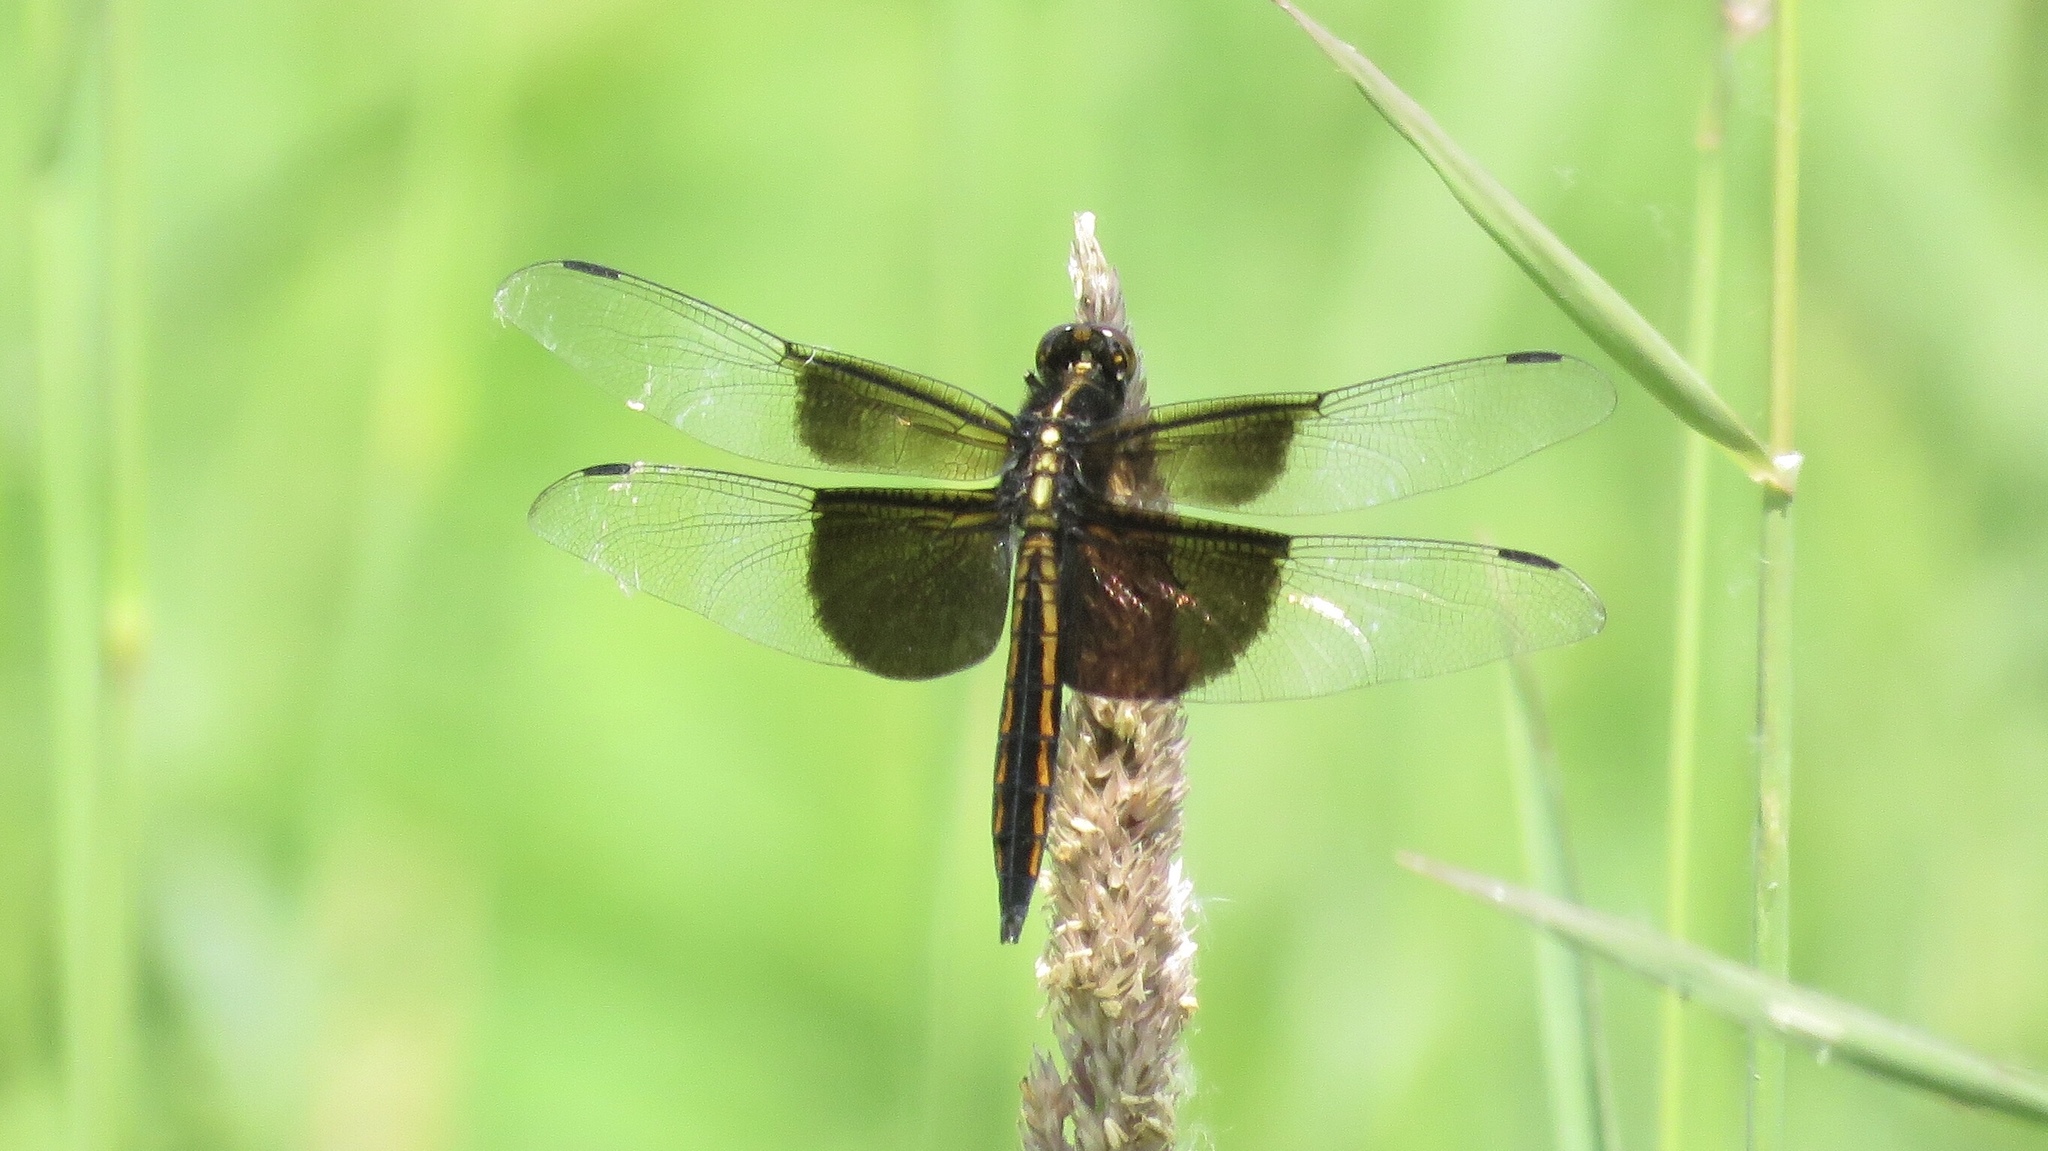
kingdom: Animalia
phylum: Arthropoda
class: Insecta
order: Odonata
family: Libellulidae
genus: Libellula
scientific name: Libellula luctuosa
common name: Widow skimmer
